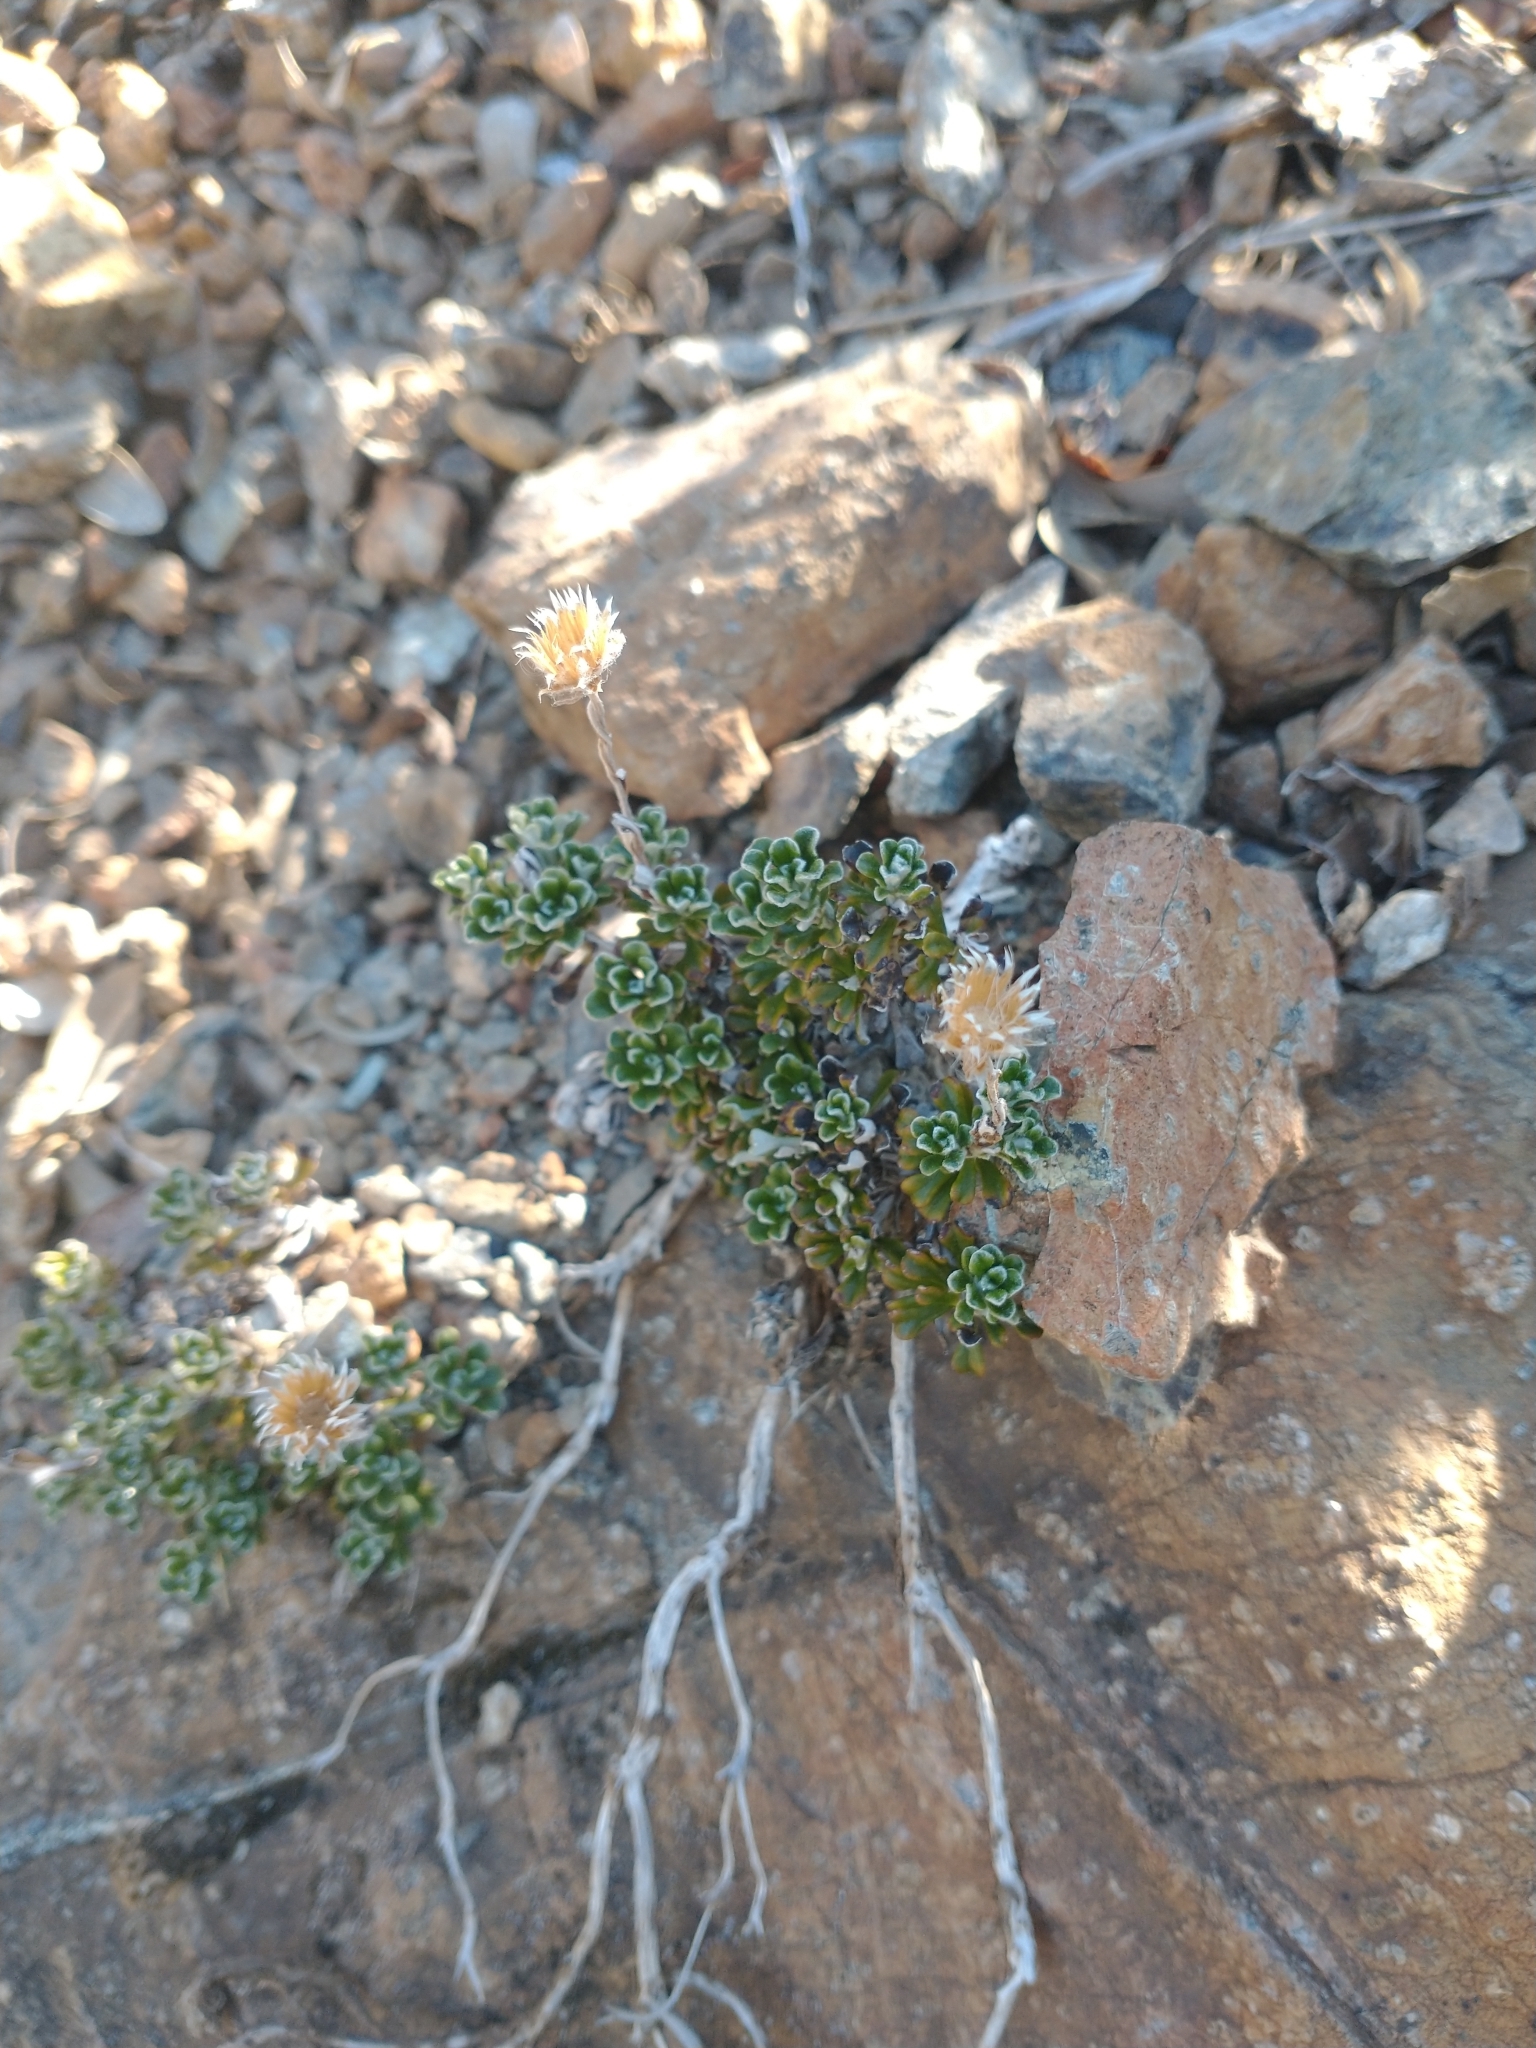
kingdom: Plantae
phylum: Tracheophyta
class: Magnoliopsida
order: Asterales
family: Asteraceae
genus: Antennaria
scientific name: Antennaria suffrutescens
